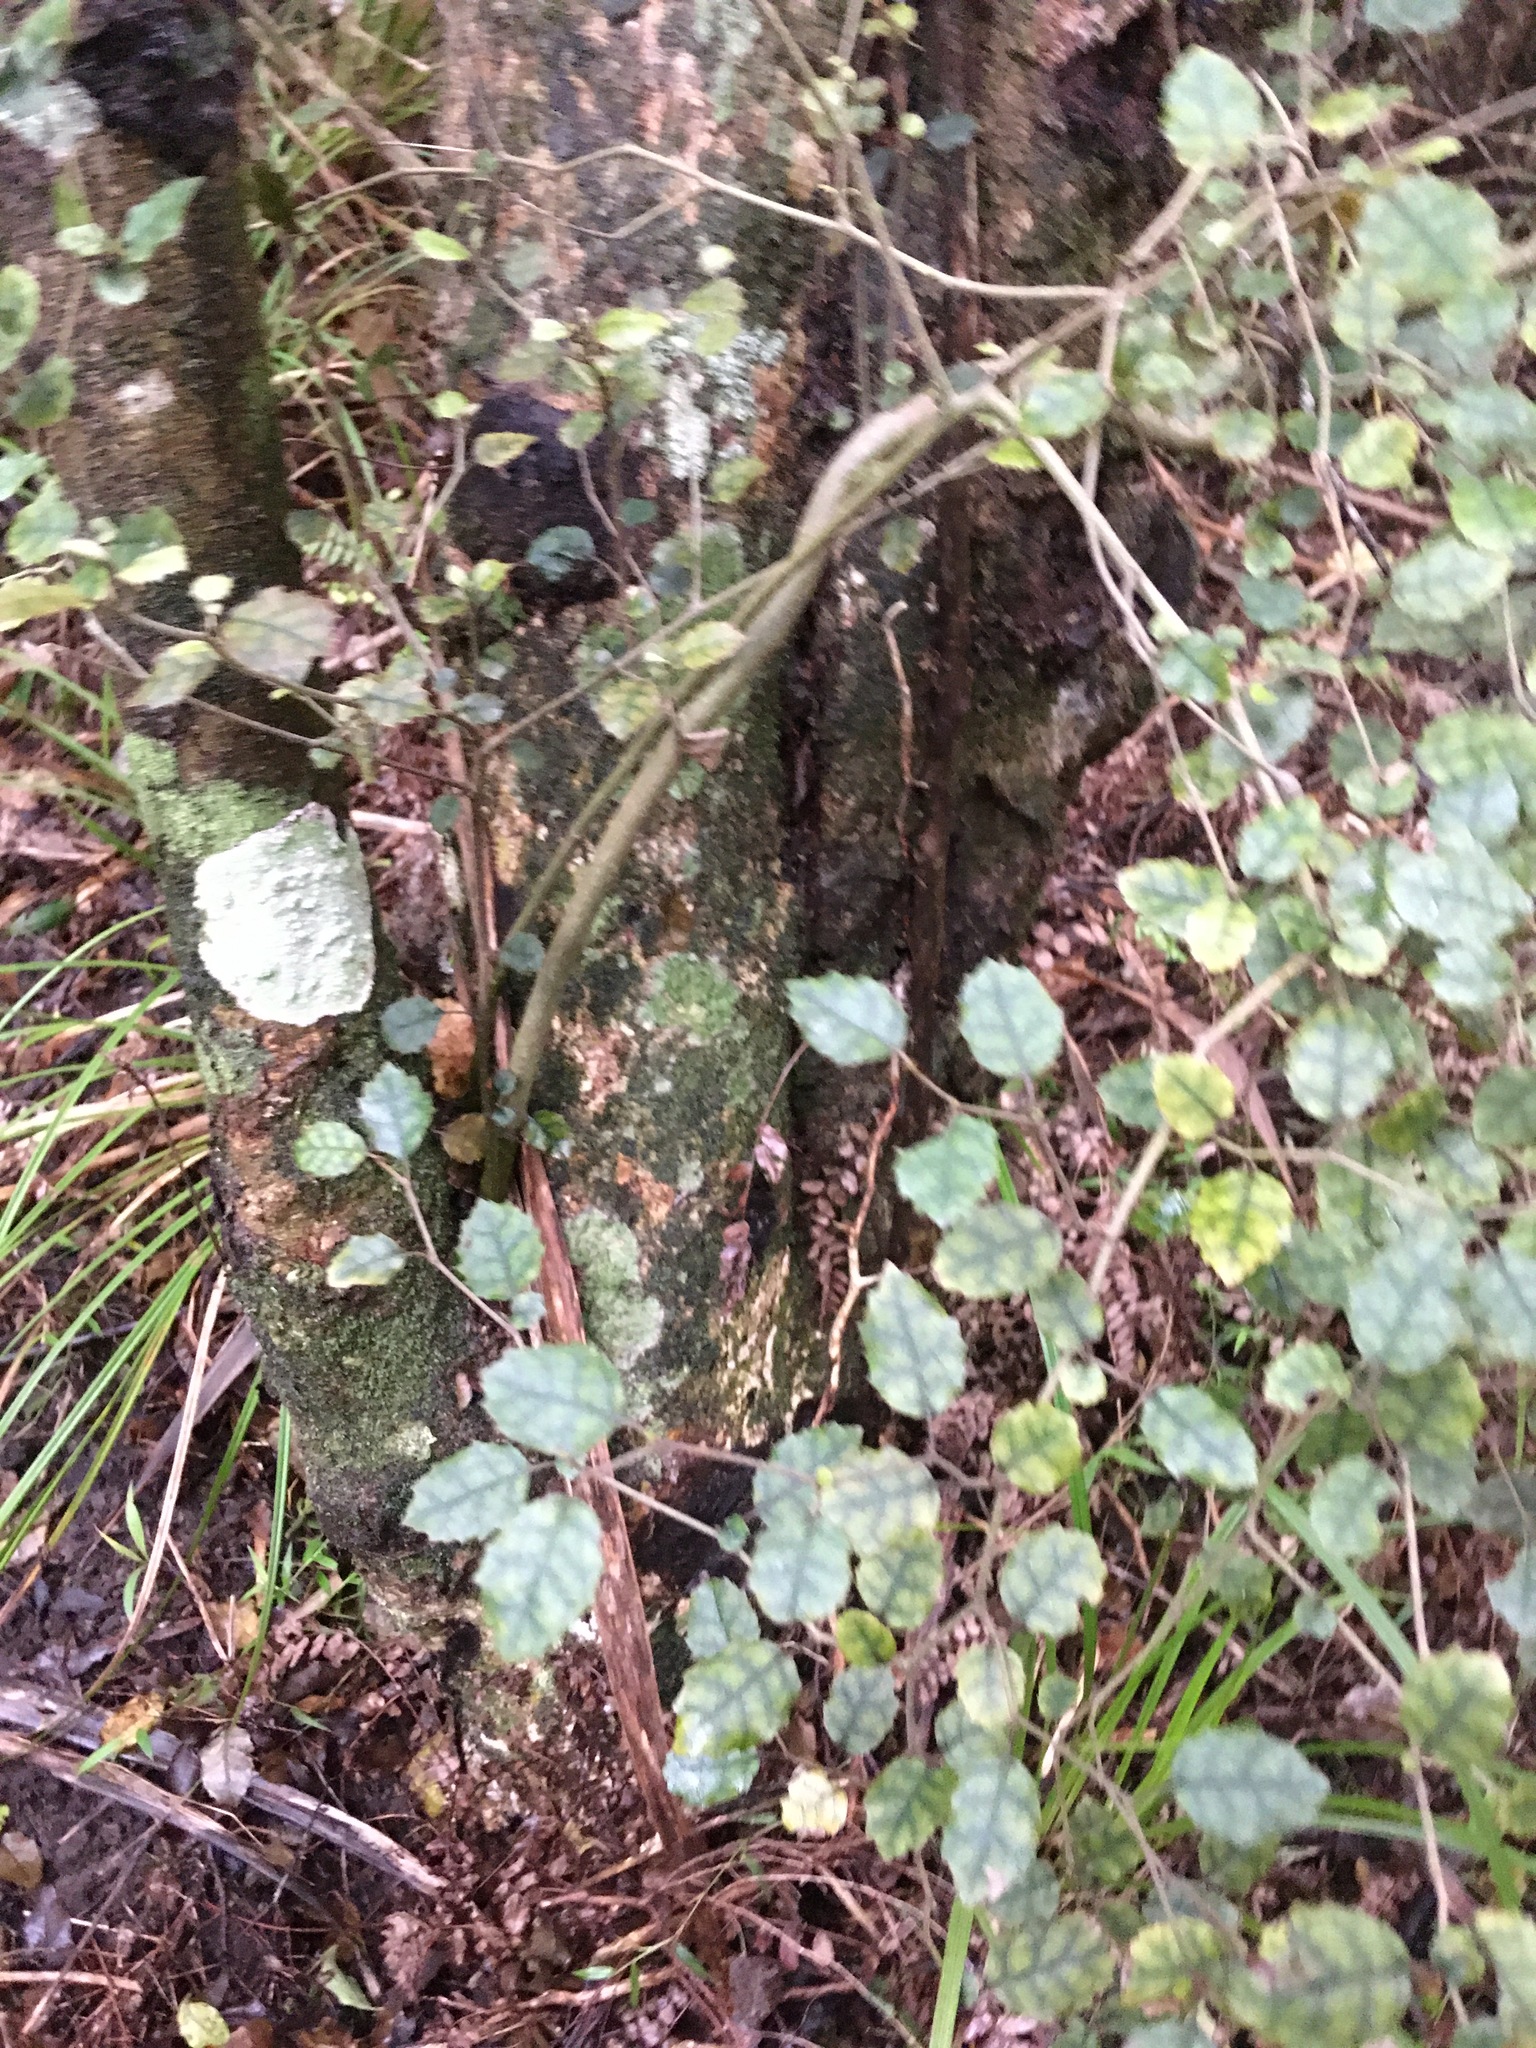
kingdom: Plantae
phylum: Tracheophyta
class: Magnoliopsida
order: Asterales
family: Rousseaceae
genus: Carpodetus
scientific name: Carpodetus serratus
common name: White mapau
